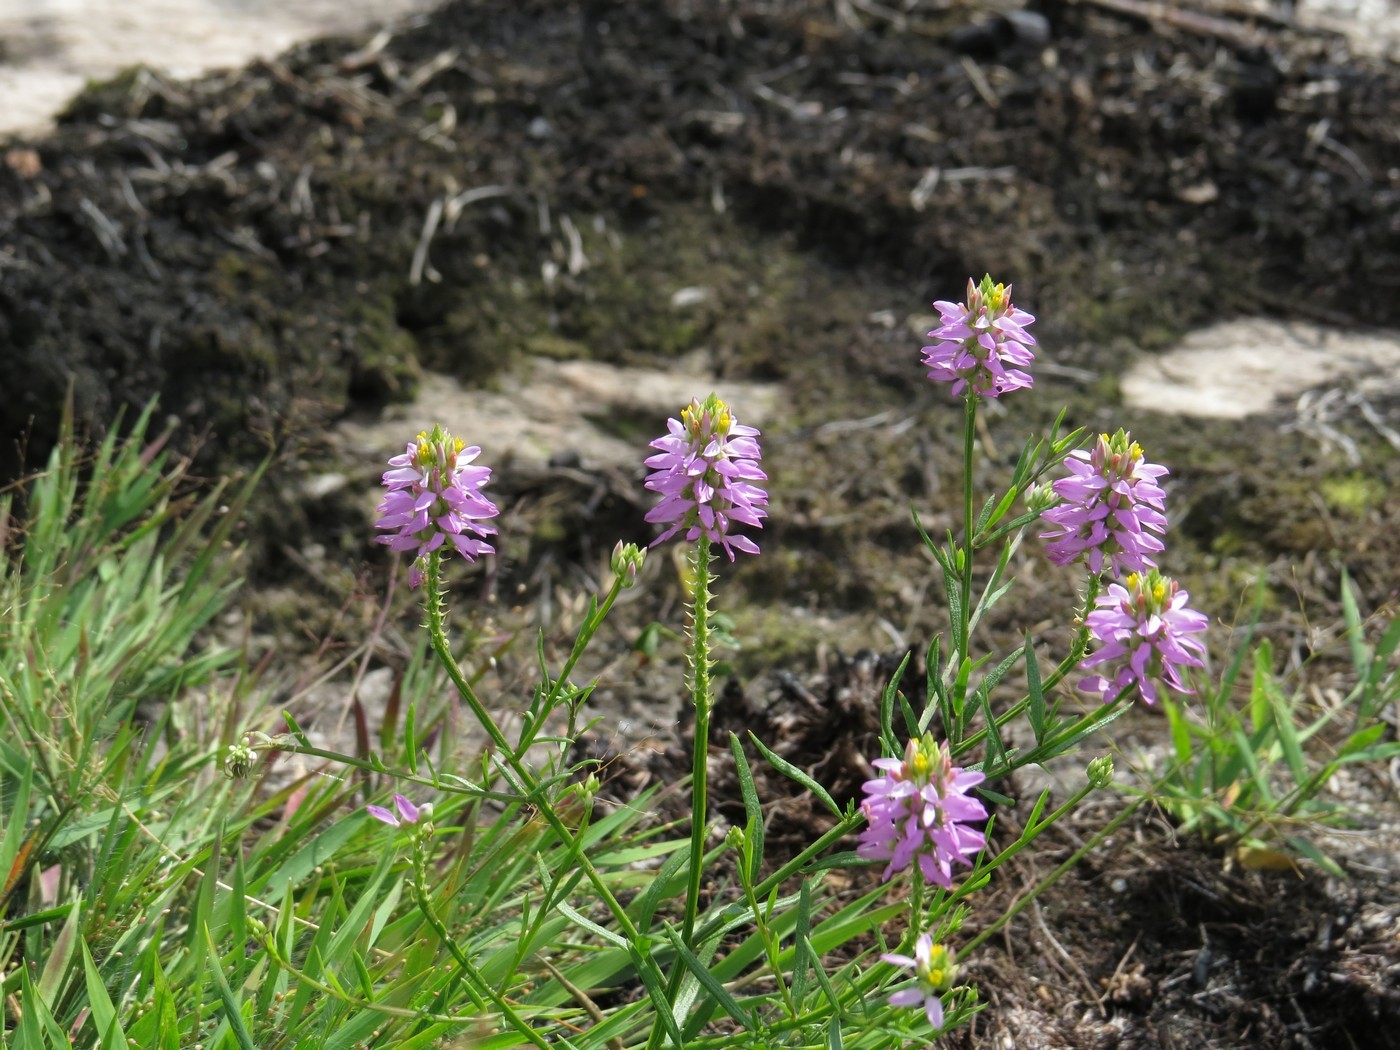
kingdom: Plantae
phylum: Tracheophyta
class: Magnoliopsida
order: Fabales
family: Polygalaceae
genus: Polygala
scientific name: Polygala curtissii
